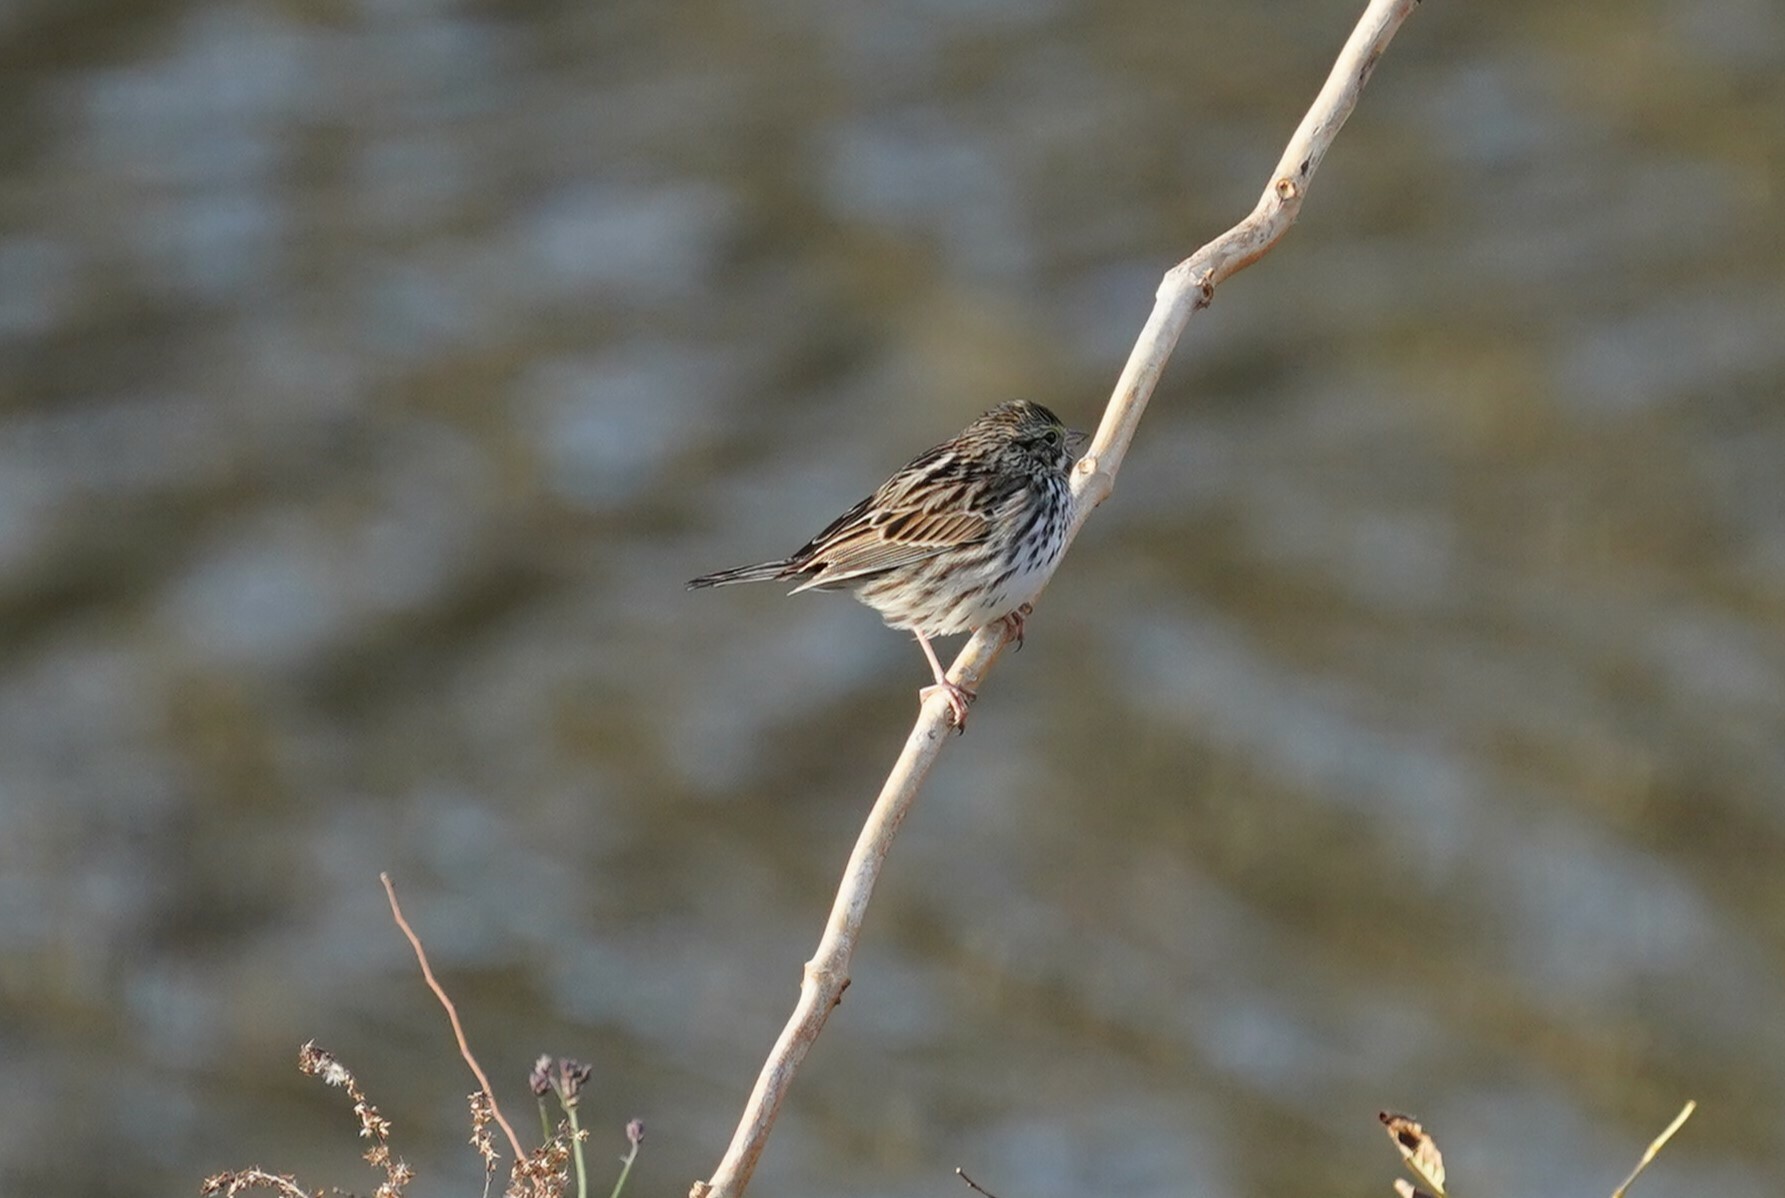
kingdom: Animalia
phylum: Chordata
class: Aves
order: Passeriformes
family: Passerellidae
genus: Passerculus
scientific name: Passerculus sandwichensis
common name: Savannah sparrow
